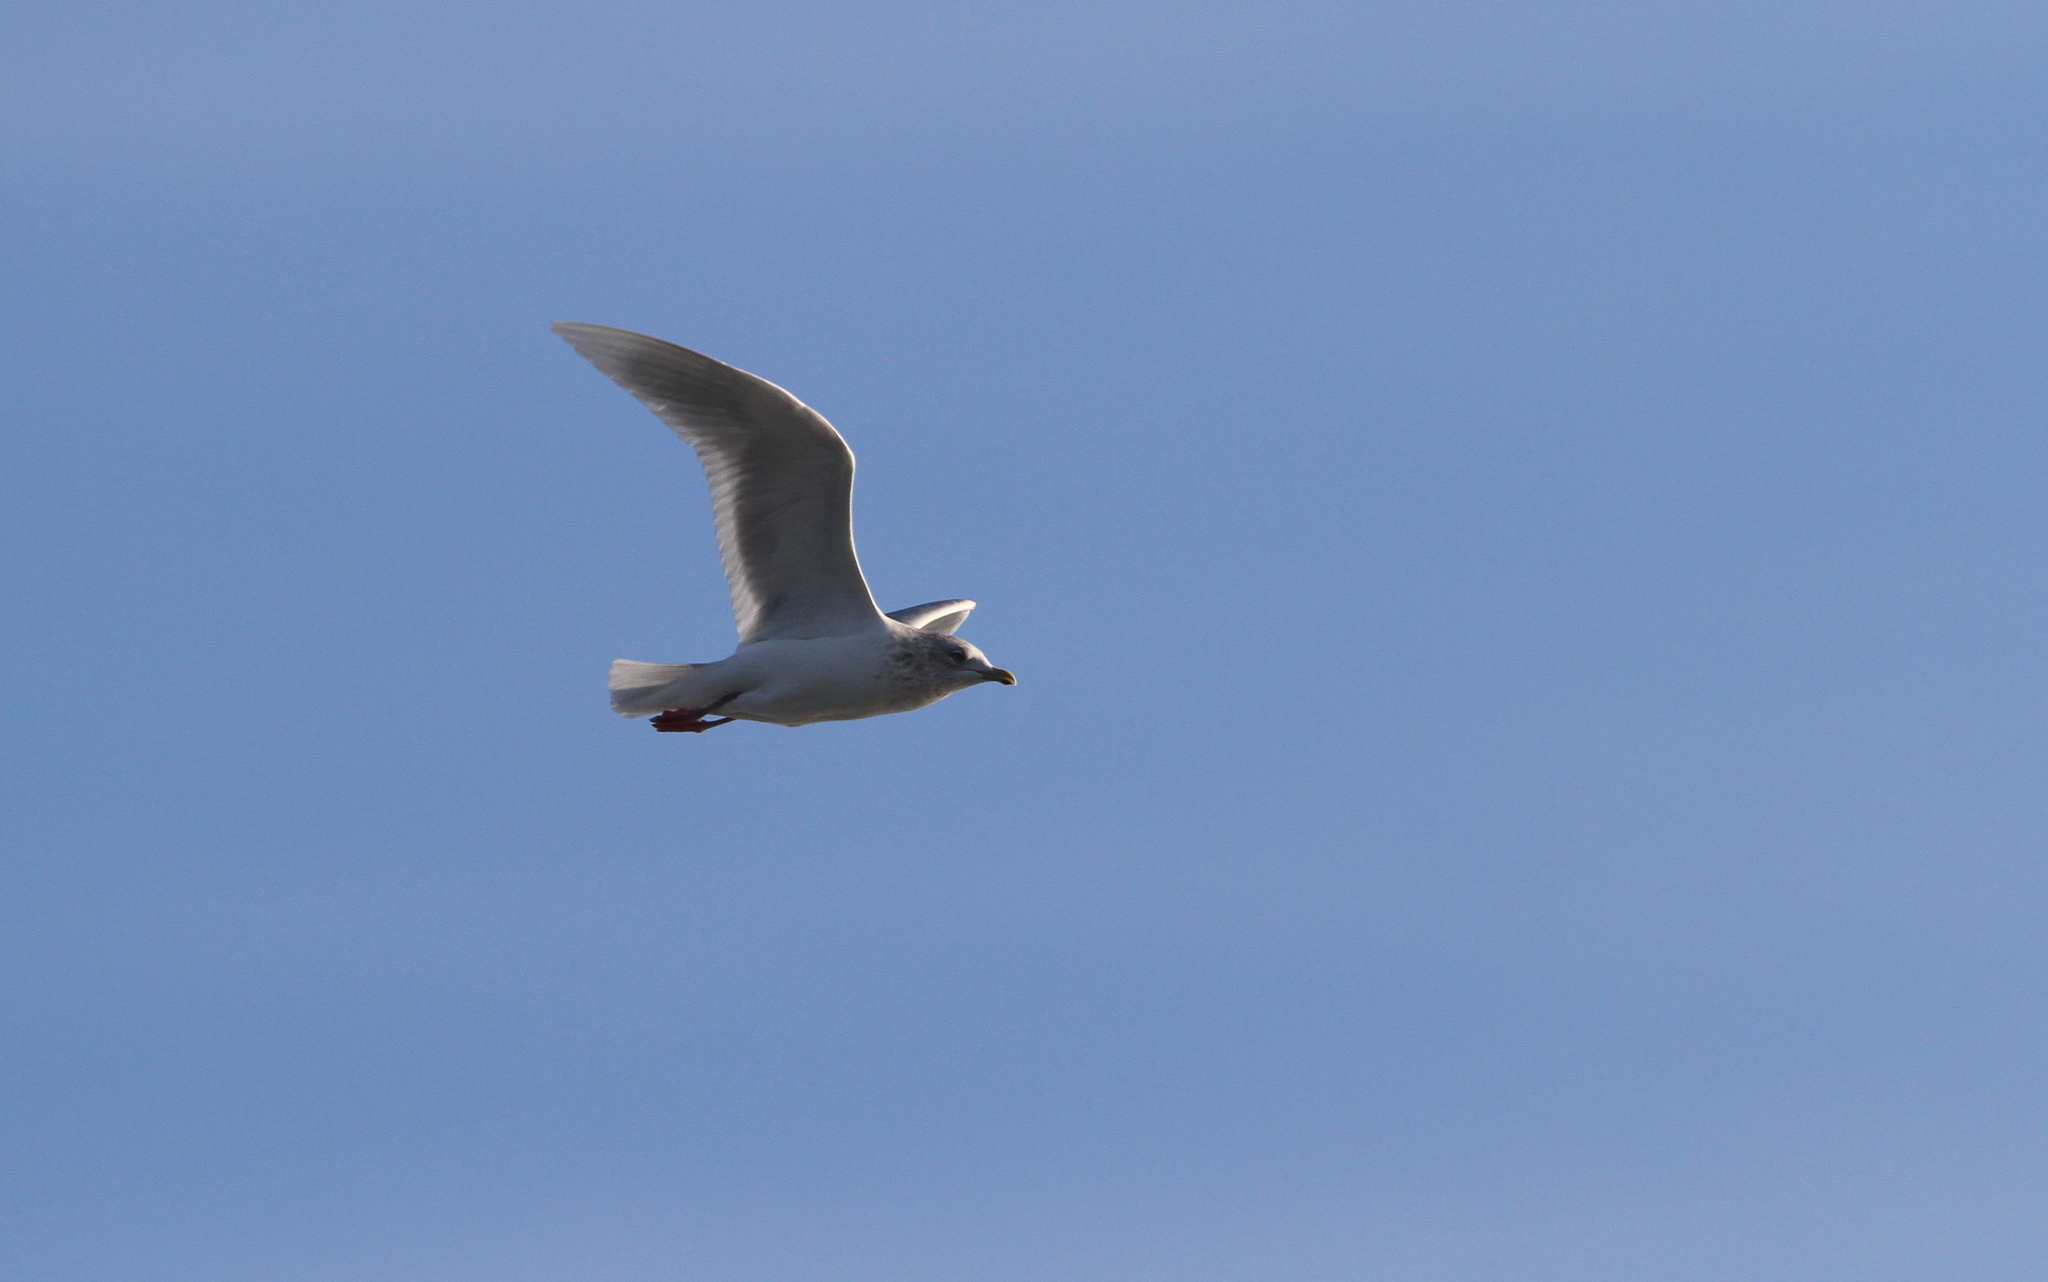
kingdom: Animalia
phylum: Chordata
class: Aves
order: Charadriiformes
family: Laridae
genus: Larus
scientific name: Larus glaucoides
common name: Iceland gull
